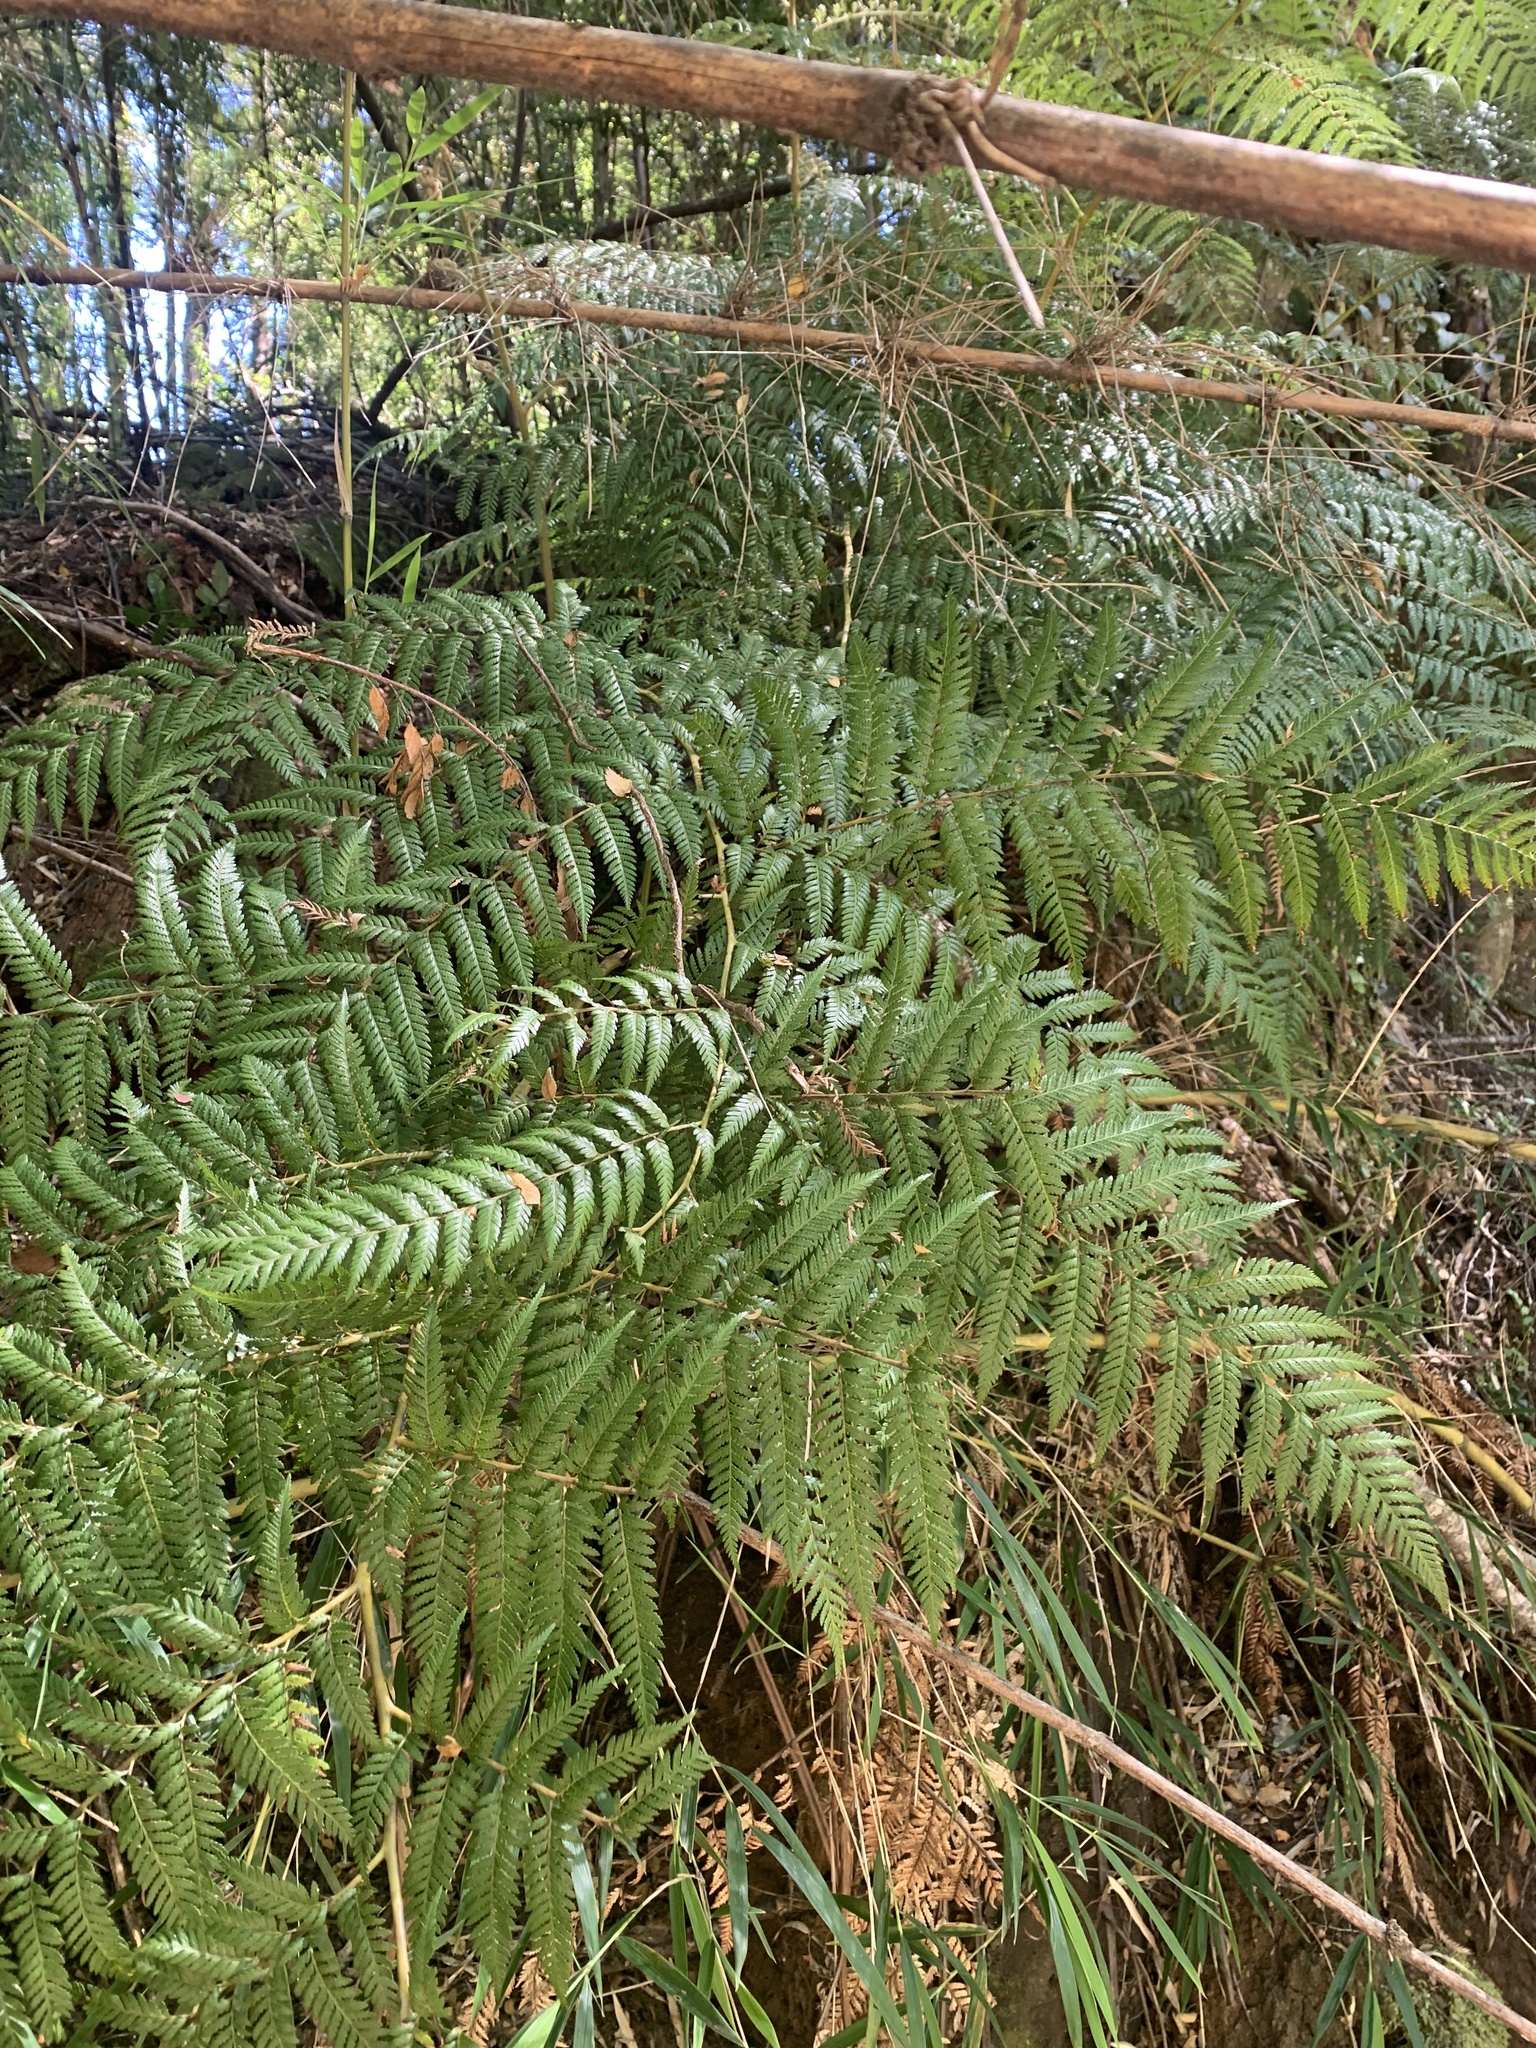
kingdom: Plantae
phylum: Tracheophyta
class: Polypodiopsida
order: Cyatheales
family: Dicksoniaceae
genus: Lophosoria
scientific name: Lophosoria quadripinnata
